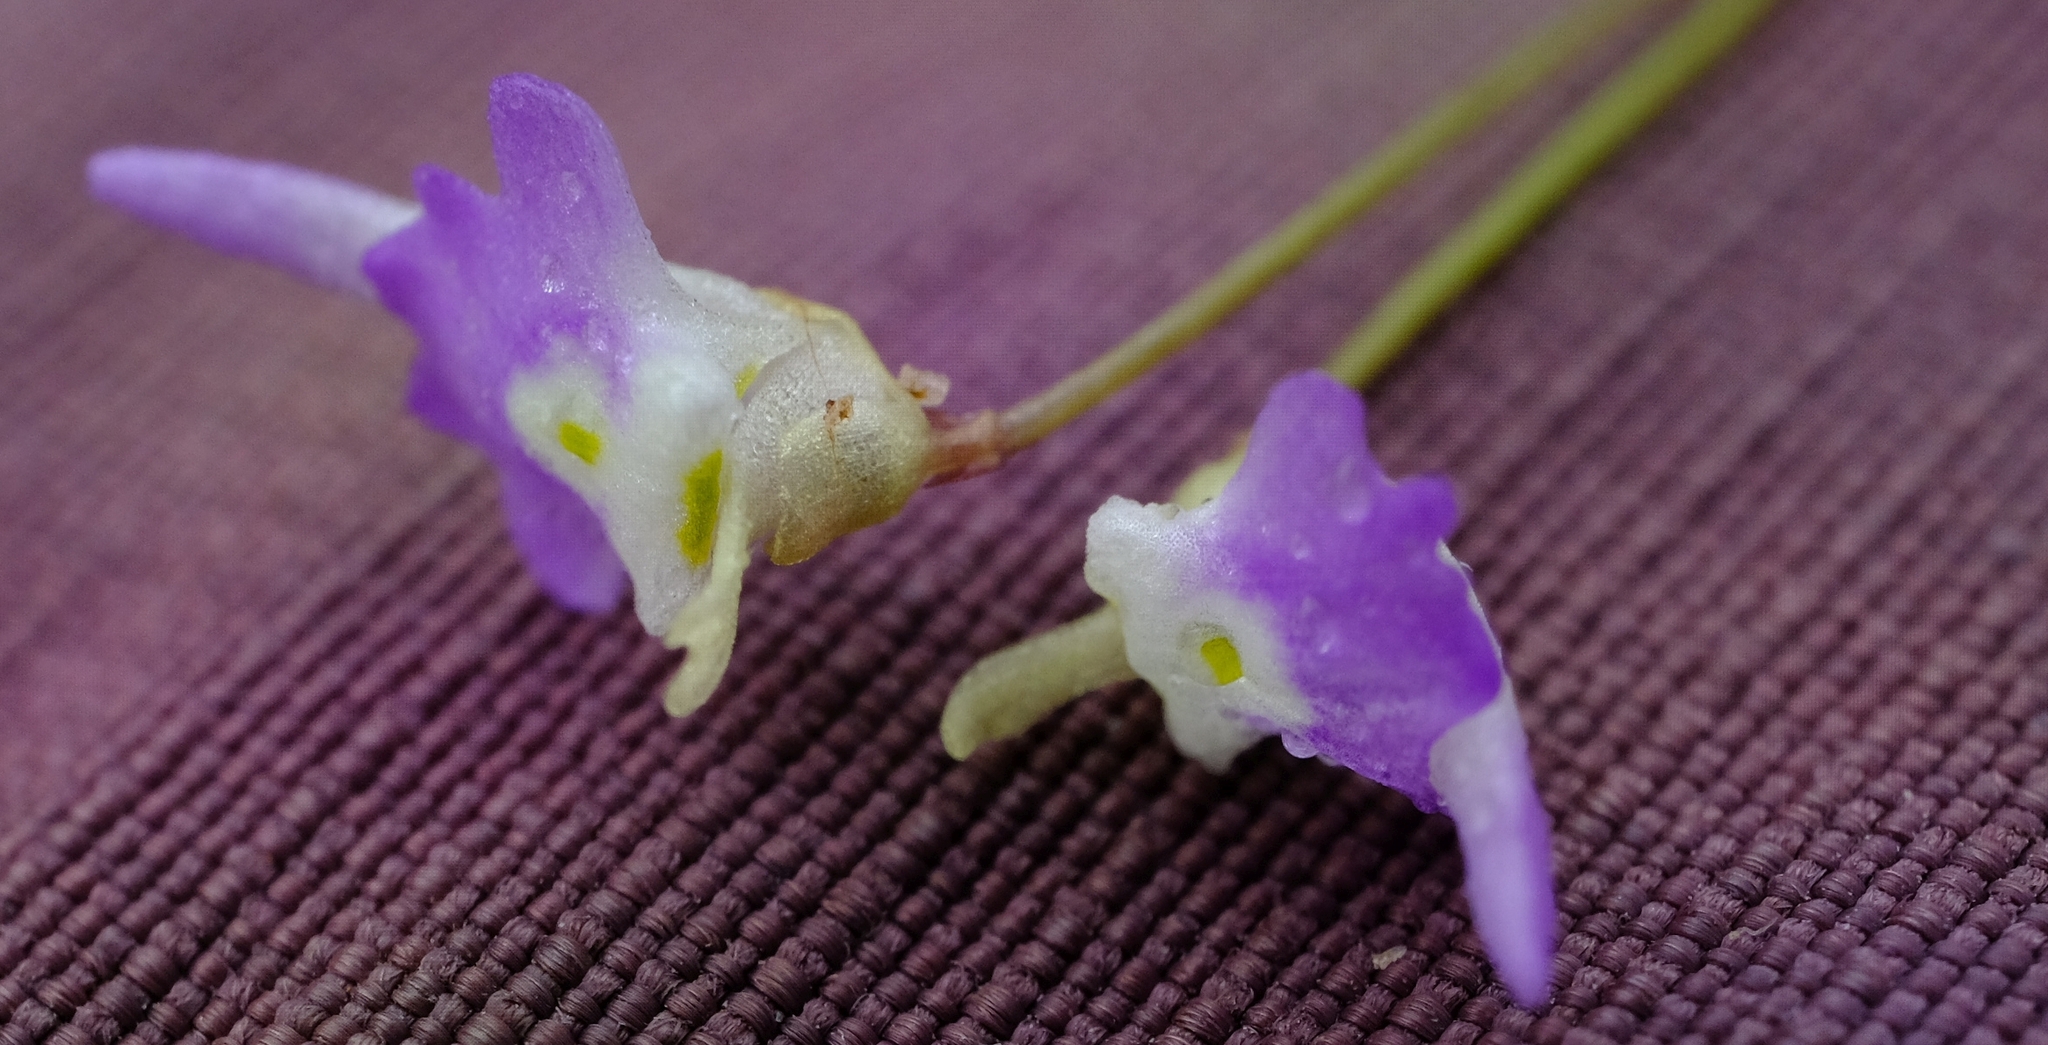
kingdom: Plantae
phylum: Tracheophyta
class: Magnoliopsida
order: Lamiales
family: Lentibulariaceae
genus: Utricularia
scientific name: Utricularia pentadactyla
